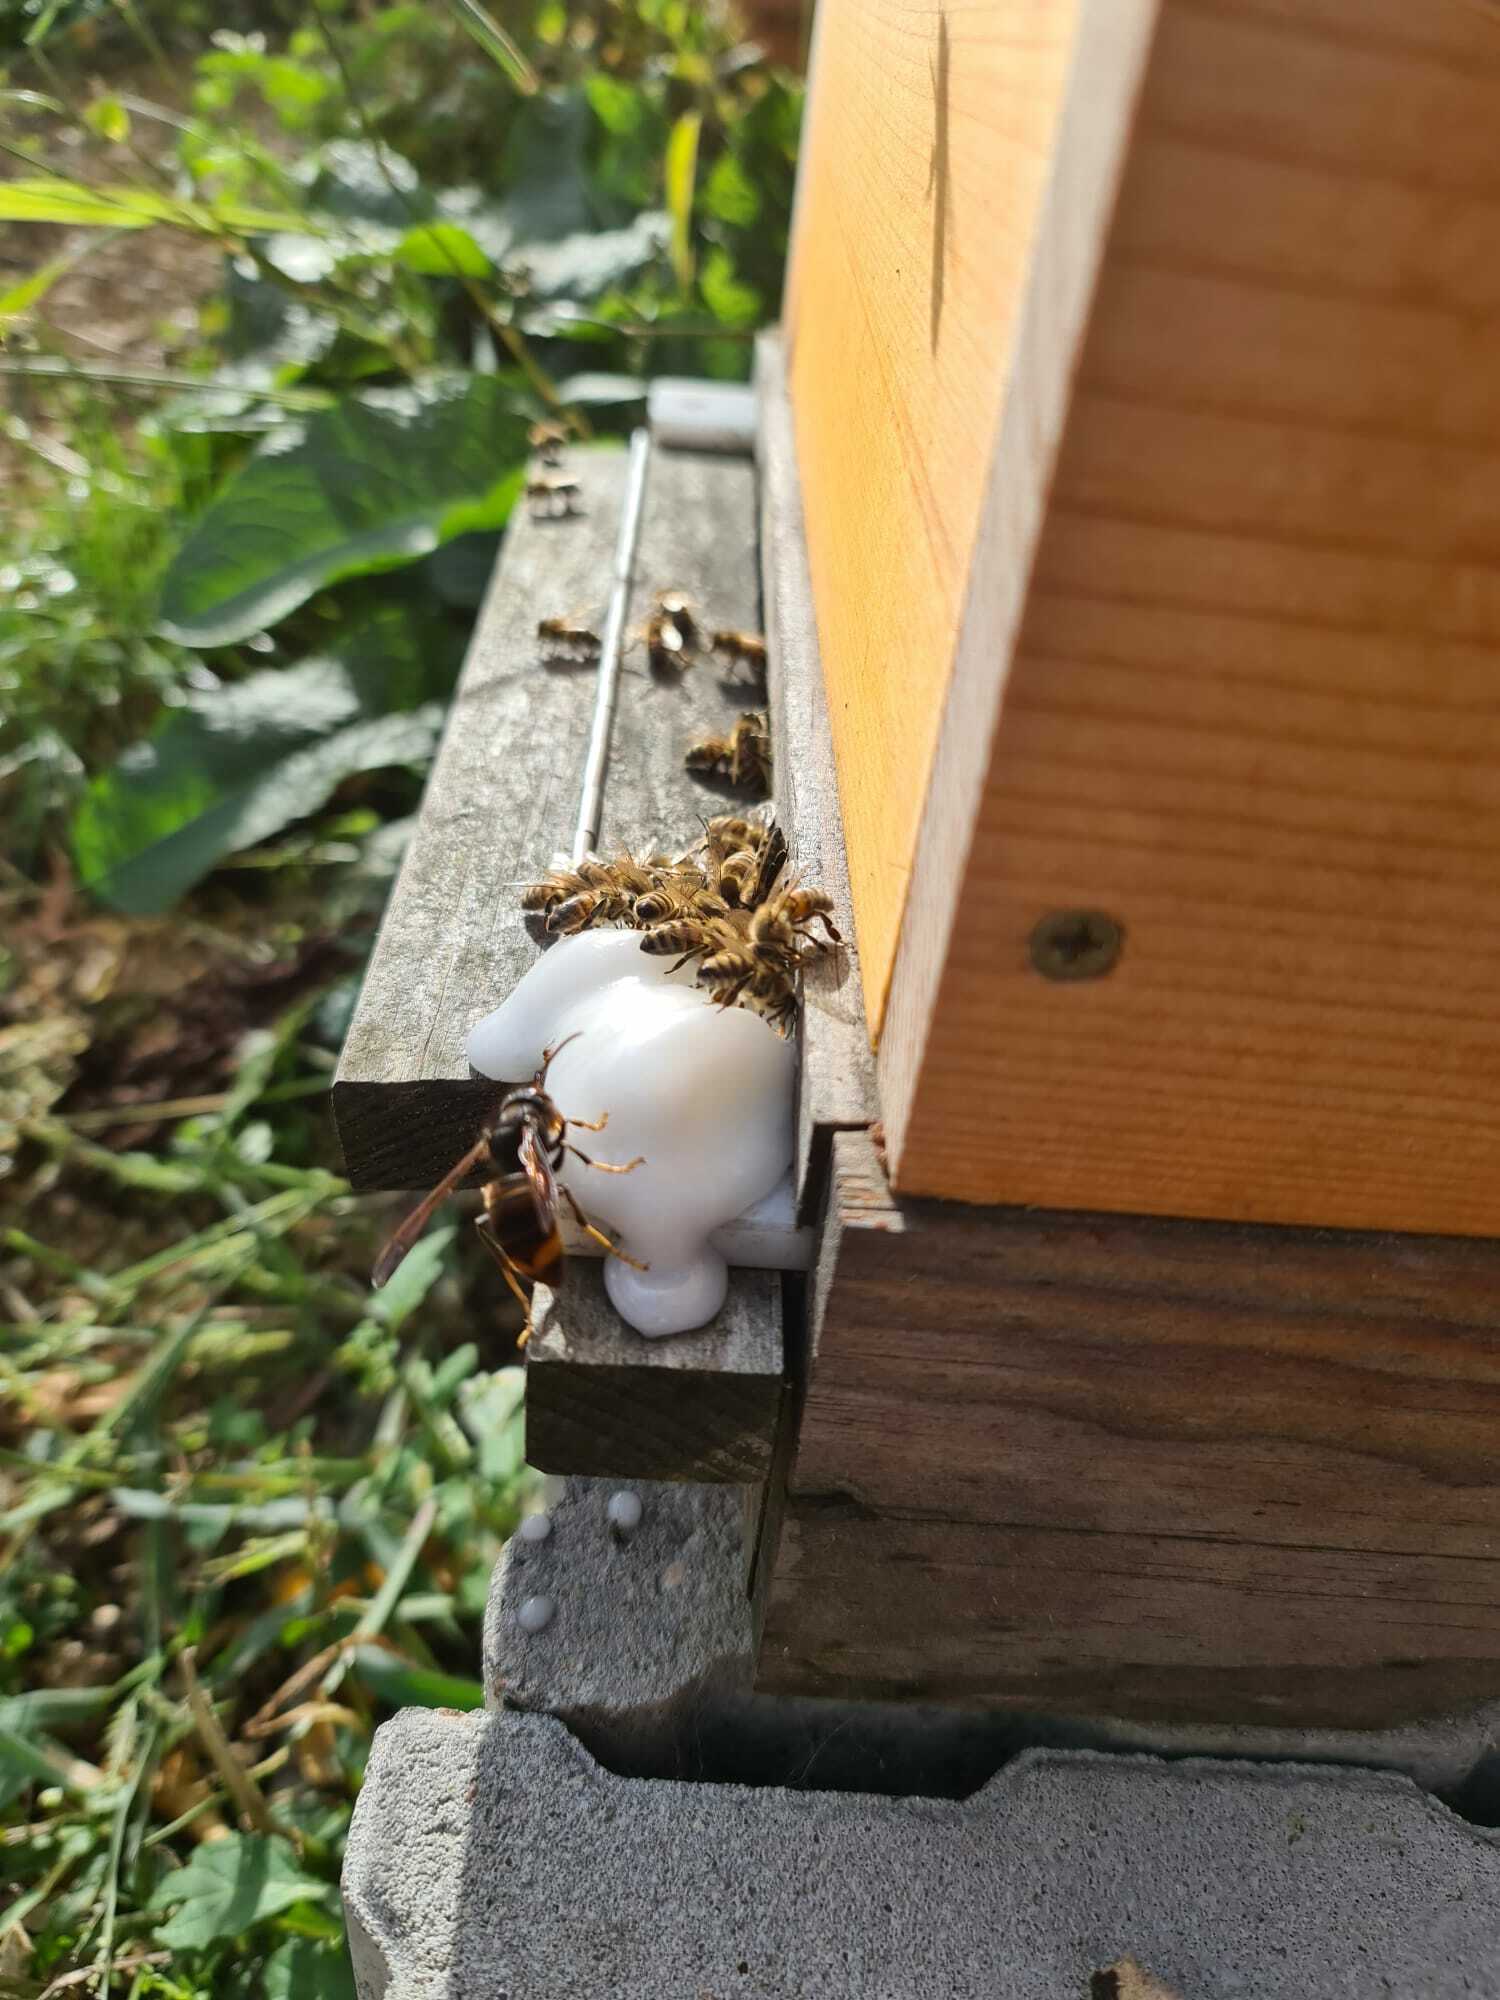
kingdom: Animalia
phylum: Arthropoda
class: Insecta
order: Hymenoptera
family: Vespidae
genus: Vespa
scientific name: Vespa velutina
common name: Asian hornet
